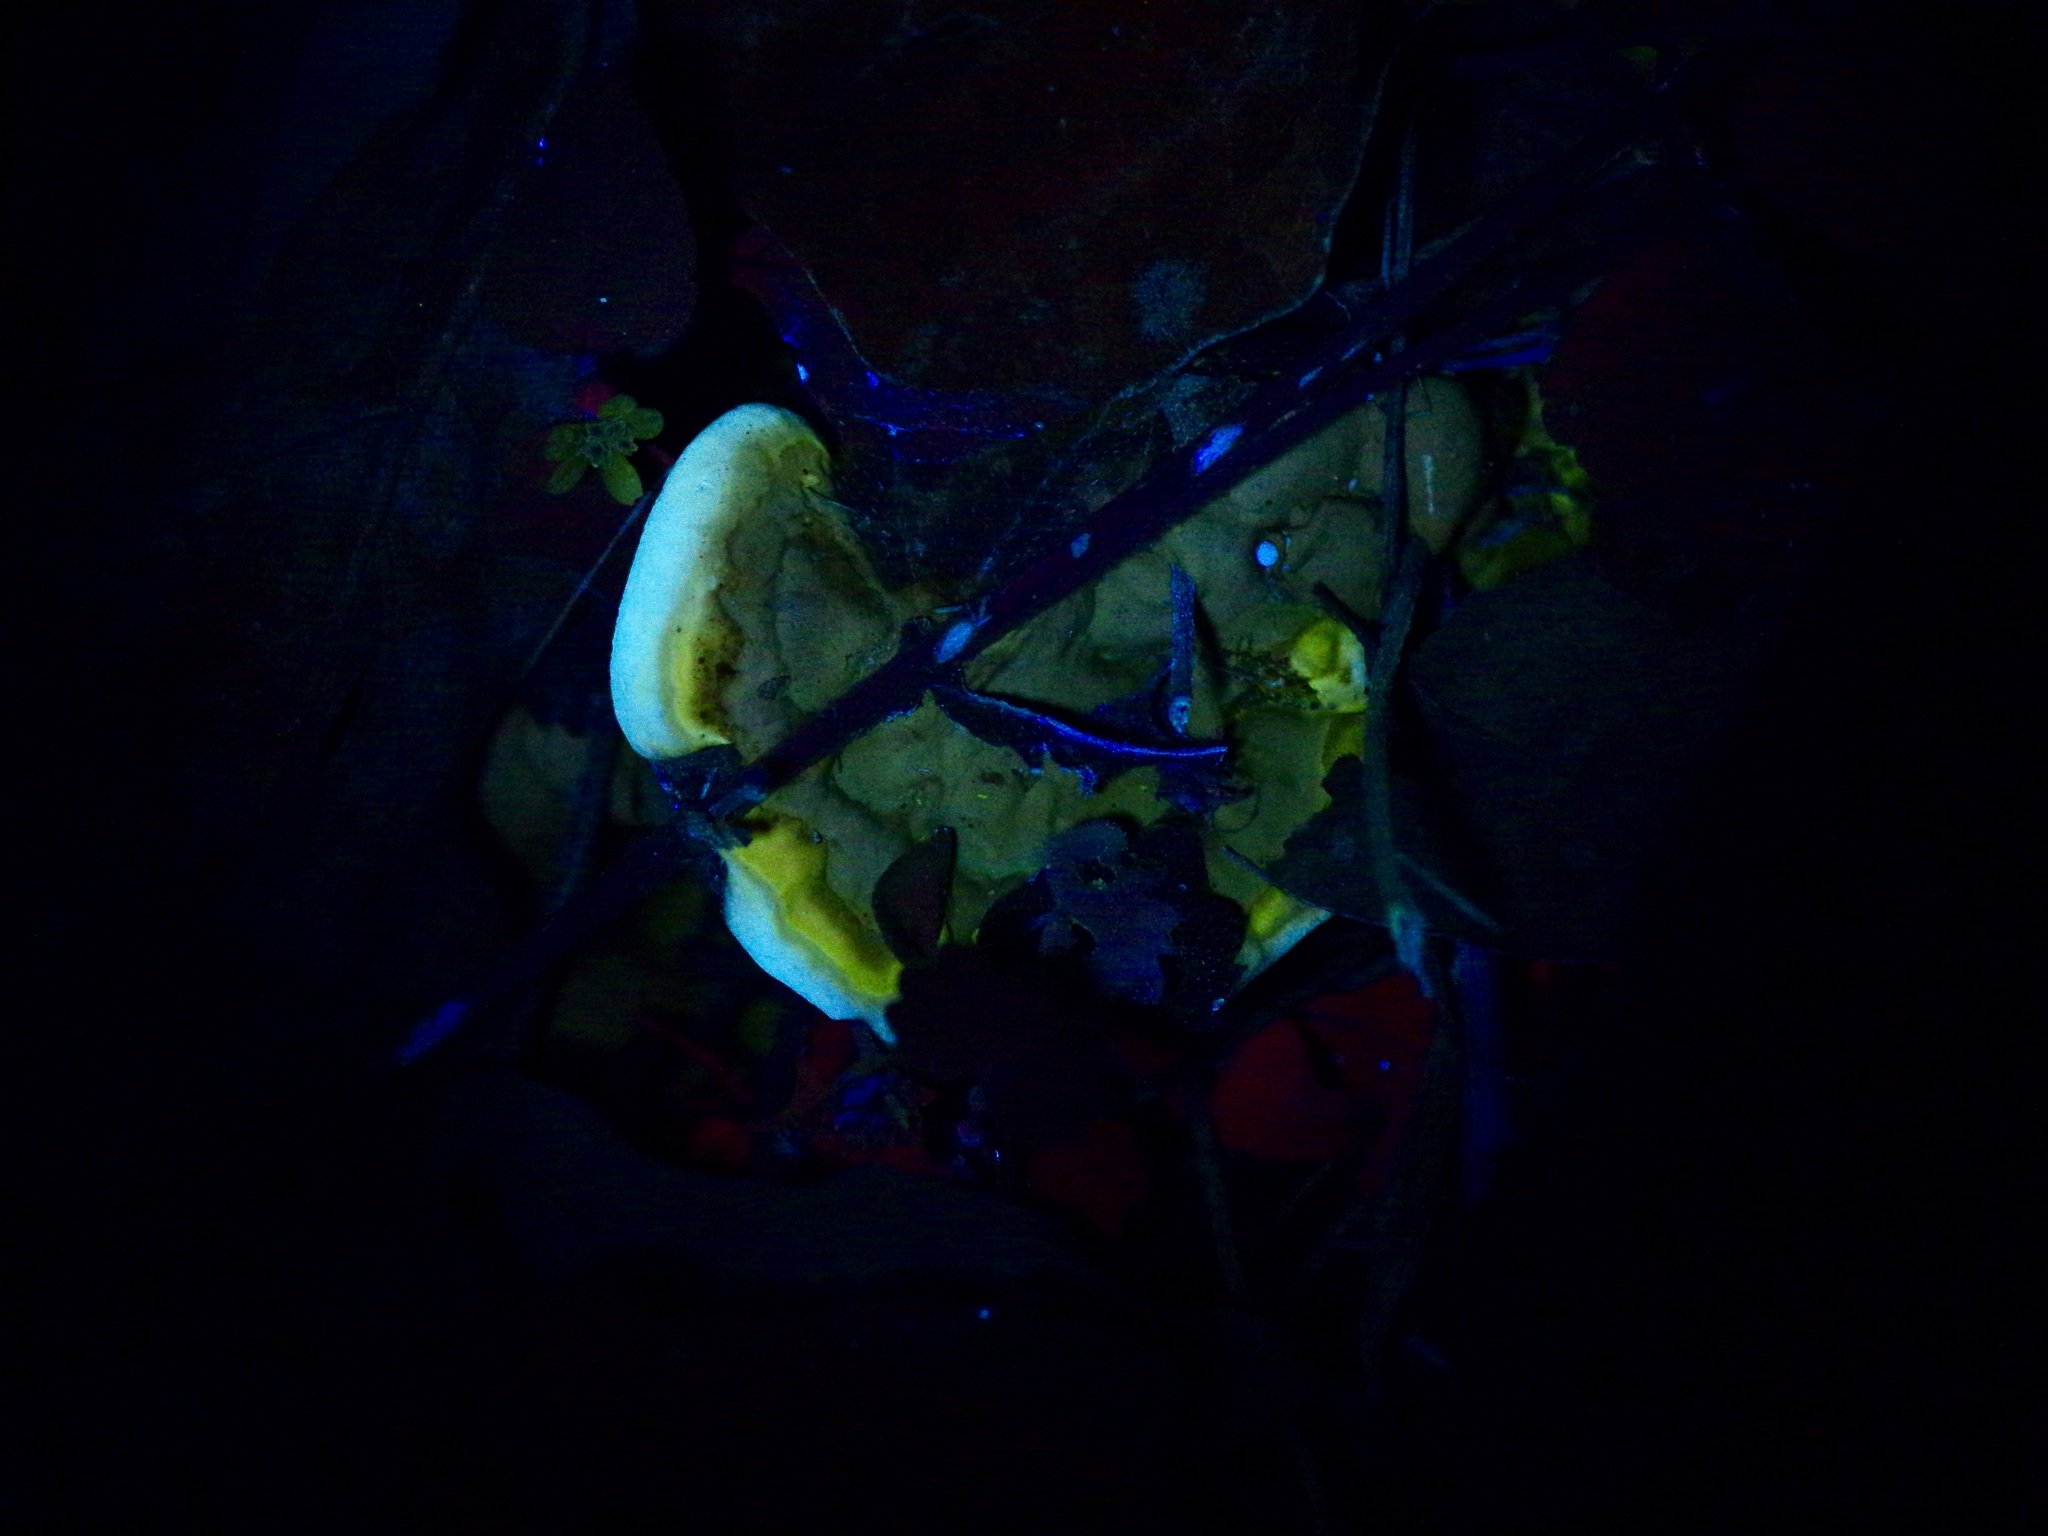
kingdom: Fungi
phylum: Basidiomycota
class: Agaricomycetes
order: Polyporales
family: Polyporaceae
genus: Ganoderma
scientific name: Ganoderma resinaceum
